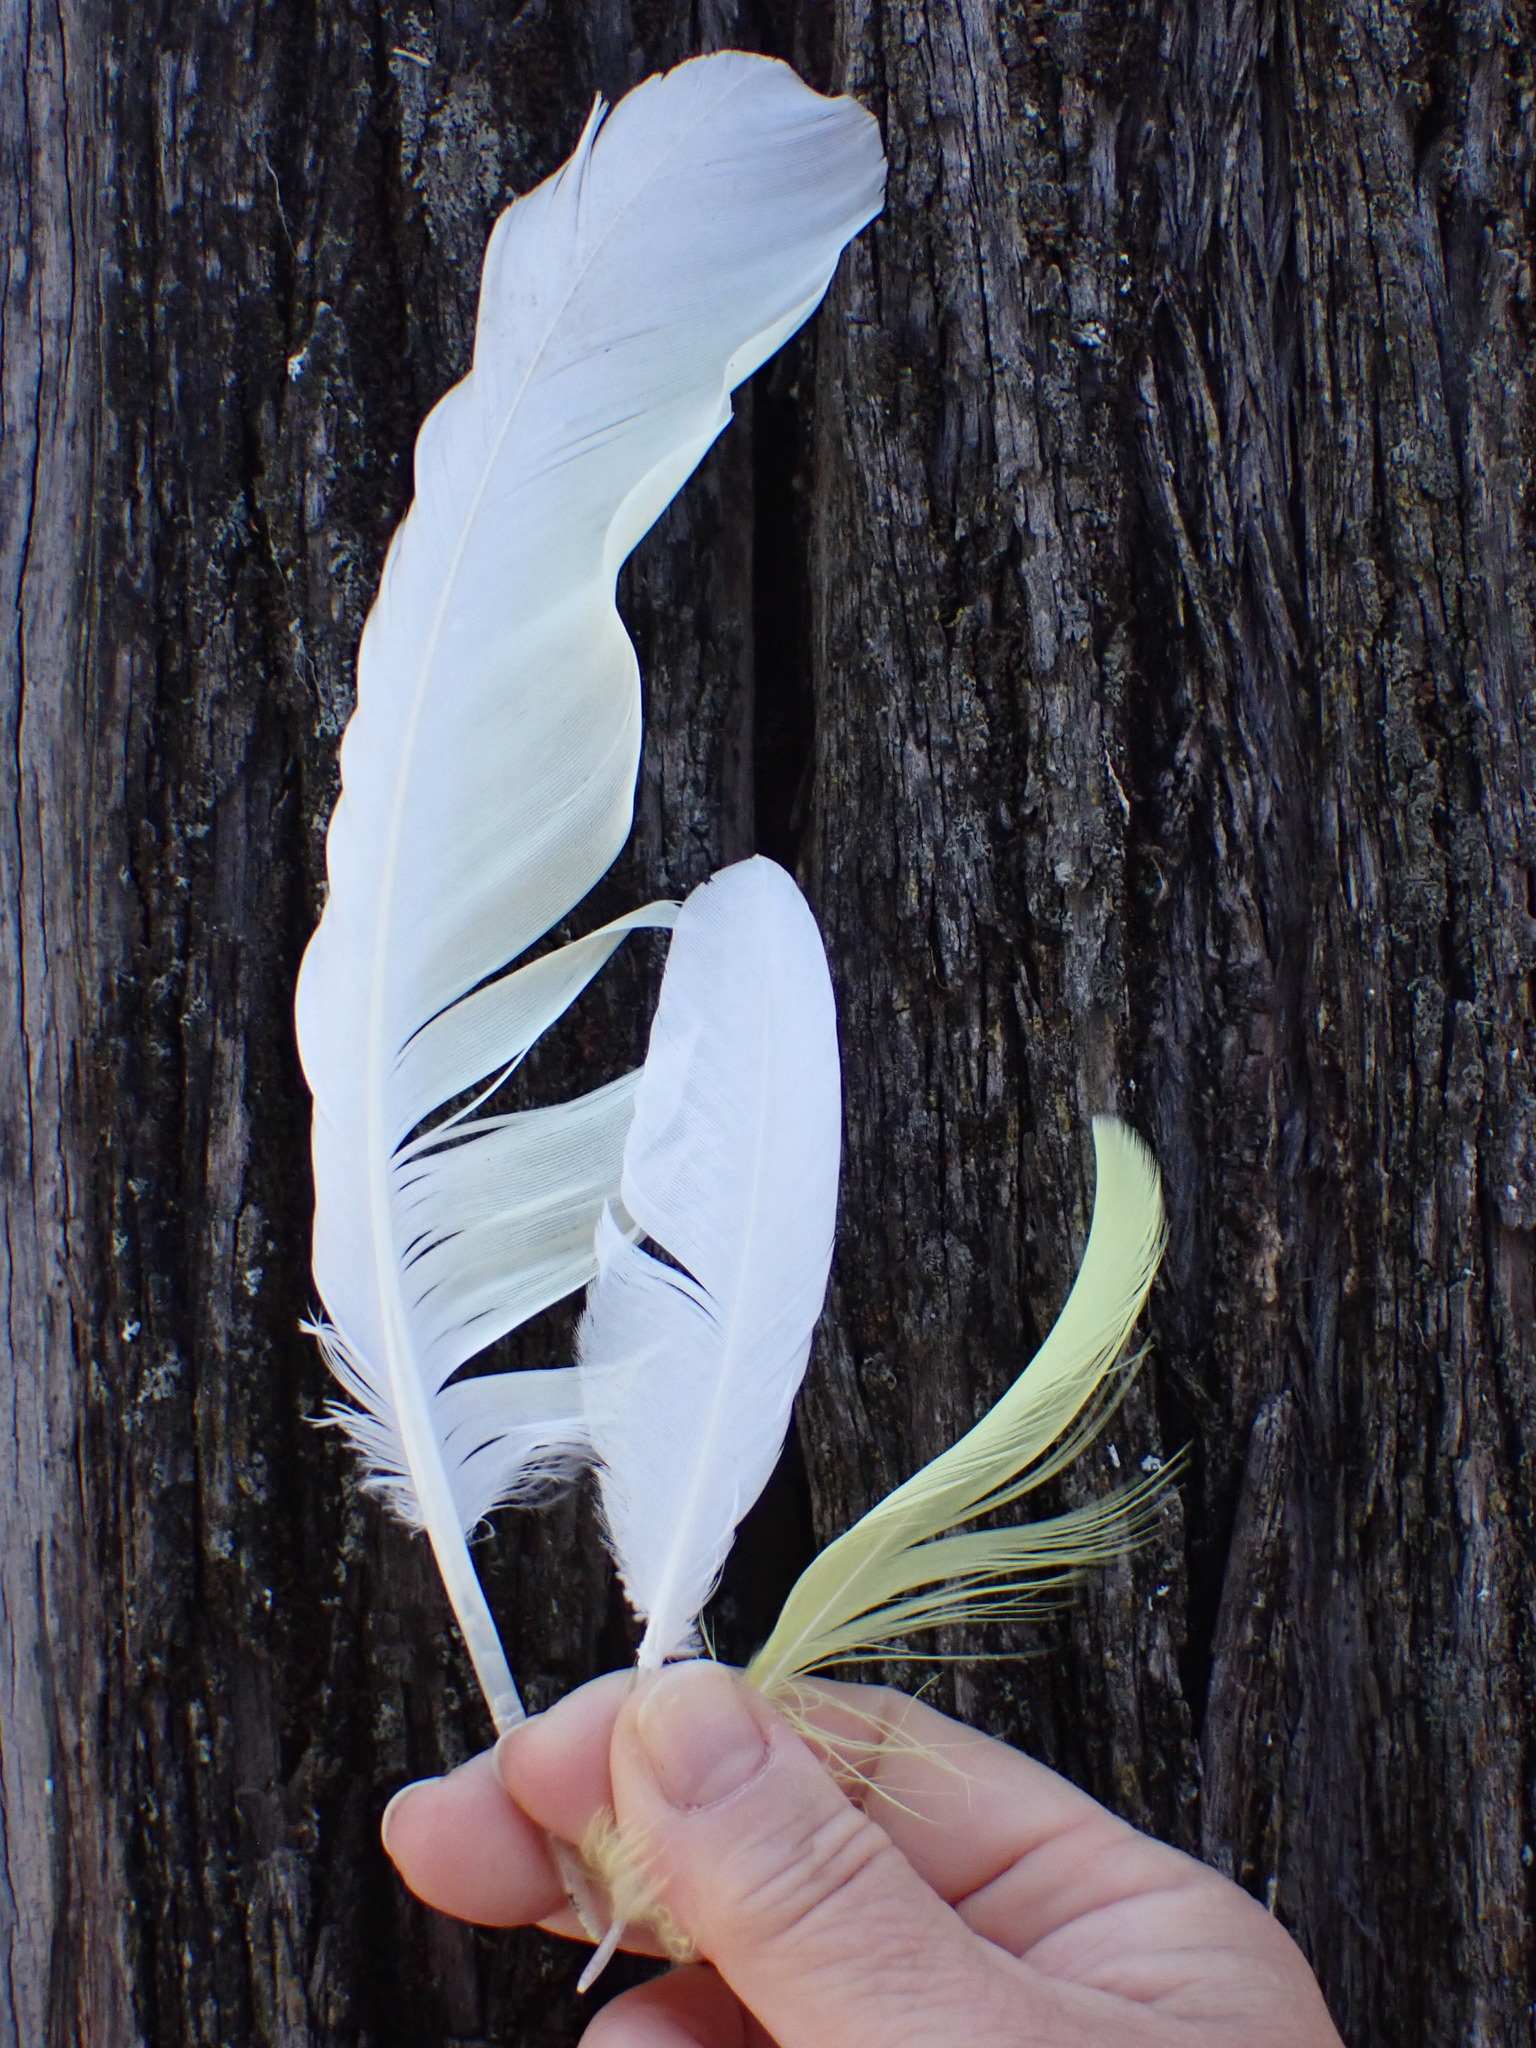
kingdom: Animalia
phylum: Chordata
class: Aves
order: Psittaciformes
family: Psittacidae
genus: Cacatua
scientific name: Cacatua galerita
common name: Sulphur-crested cockatoo
